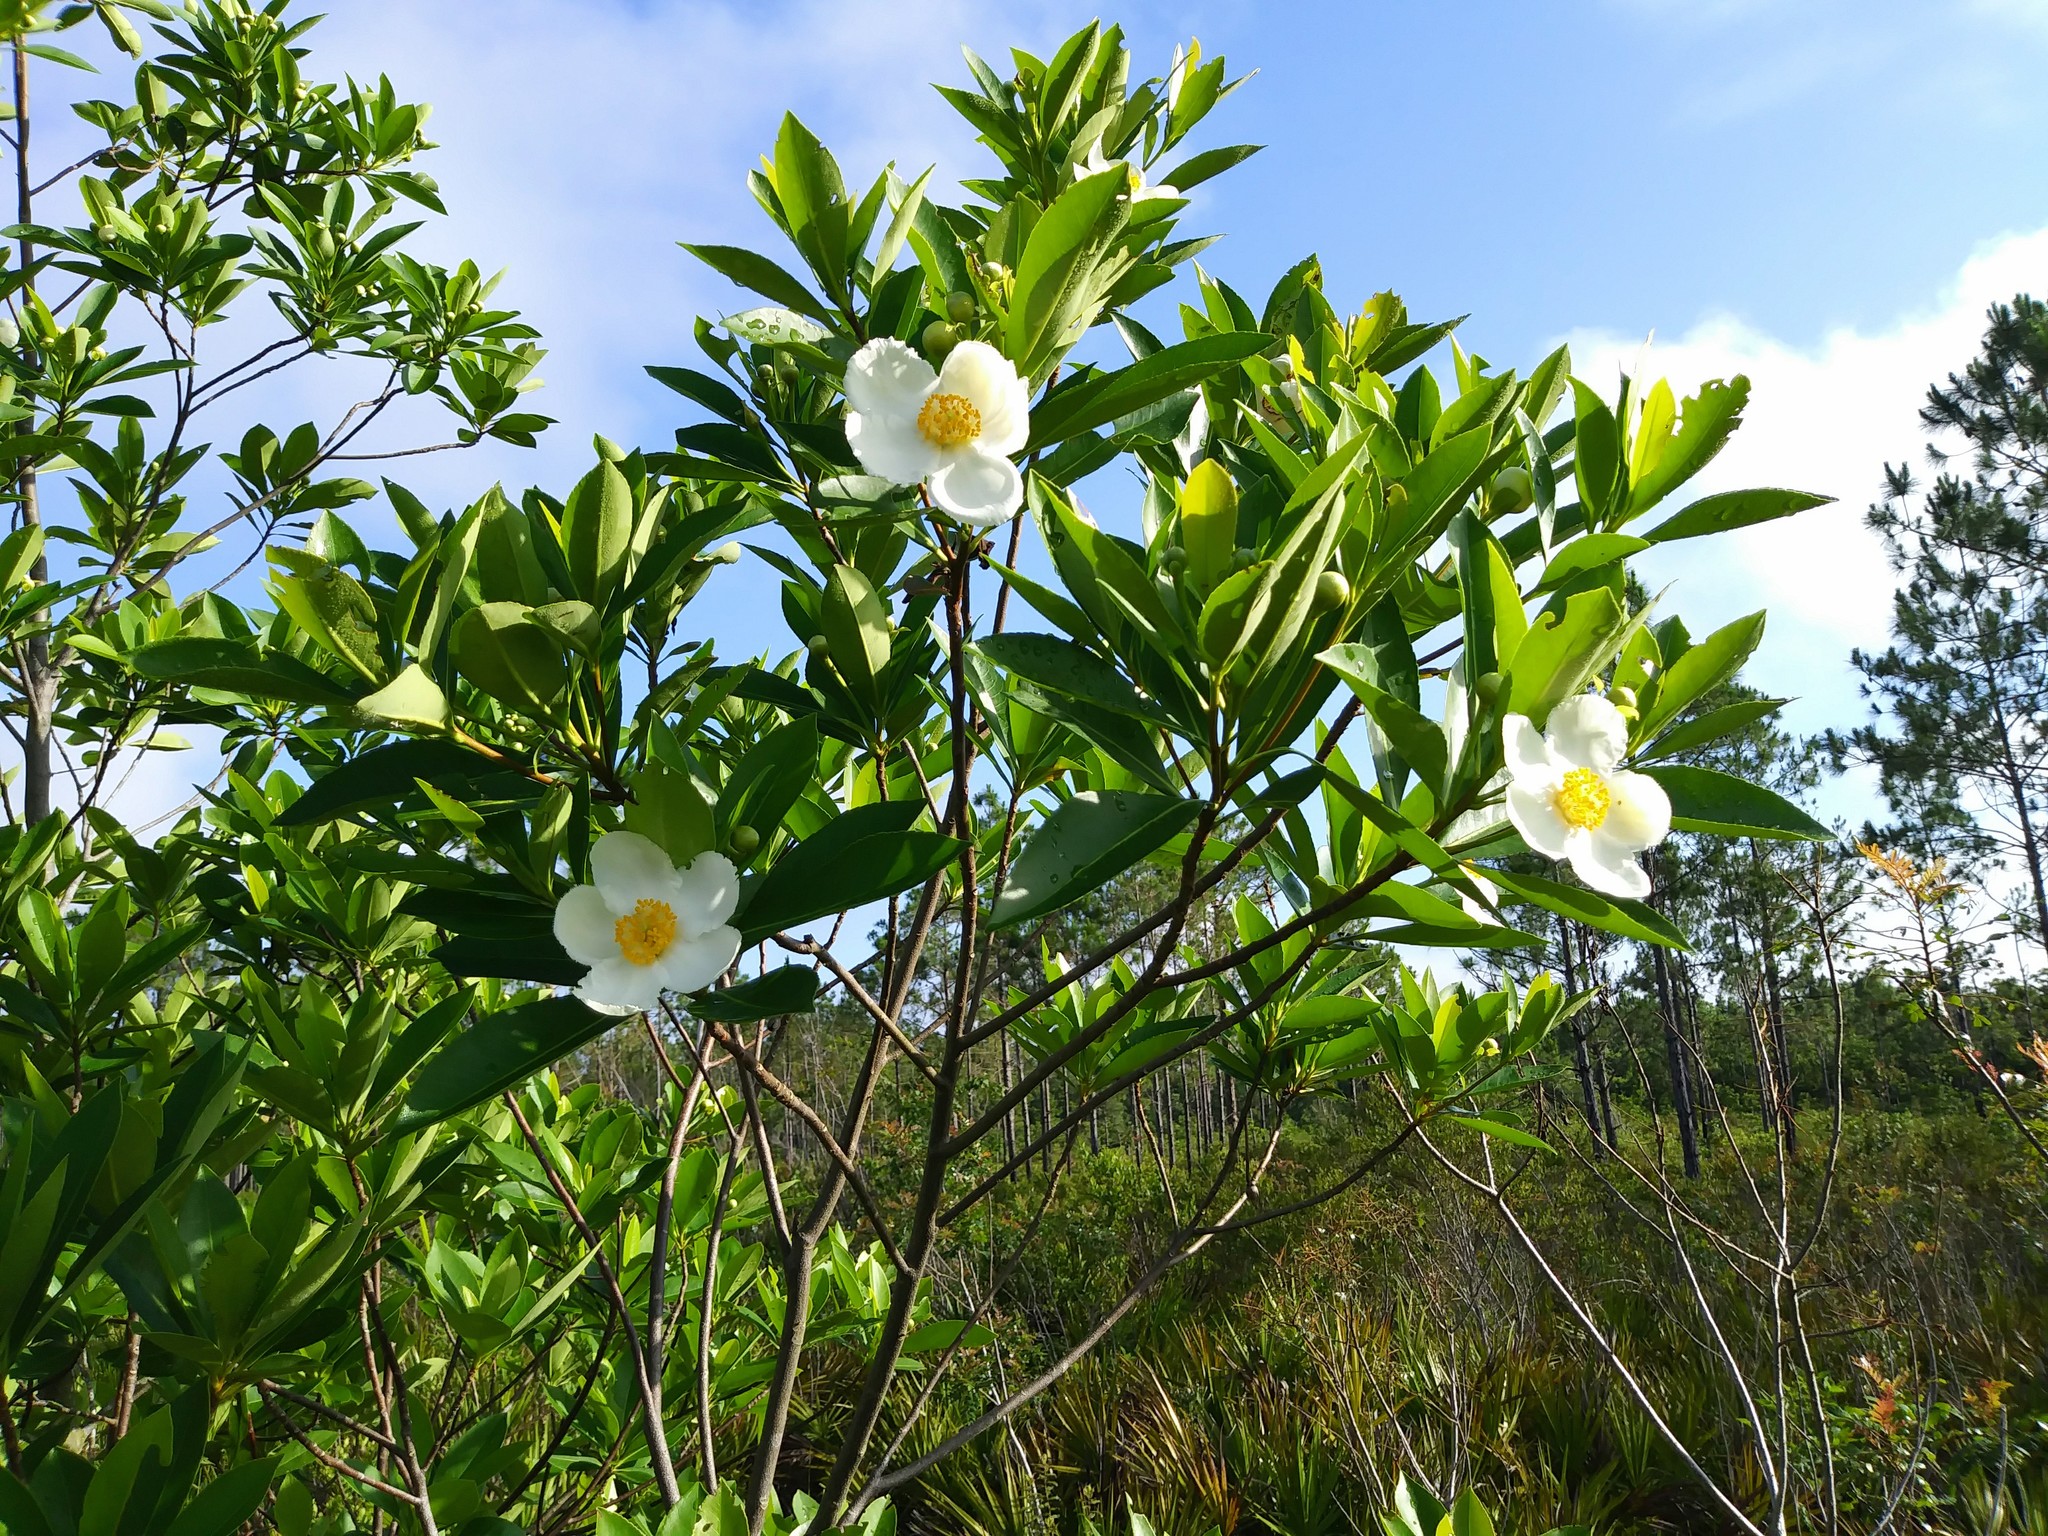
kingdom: Plantae
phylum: Tracheophyta
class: Magnoliopsida
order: Ericales
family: Theaceae
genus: Gordonia
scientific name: Gordonia lasianthus
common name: Loblolly bay
